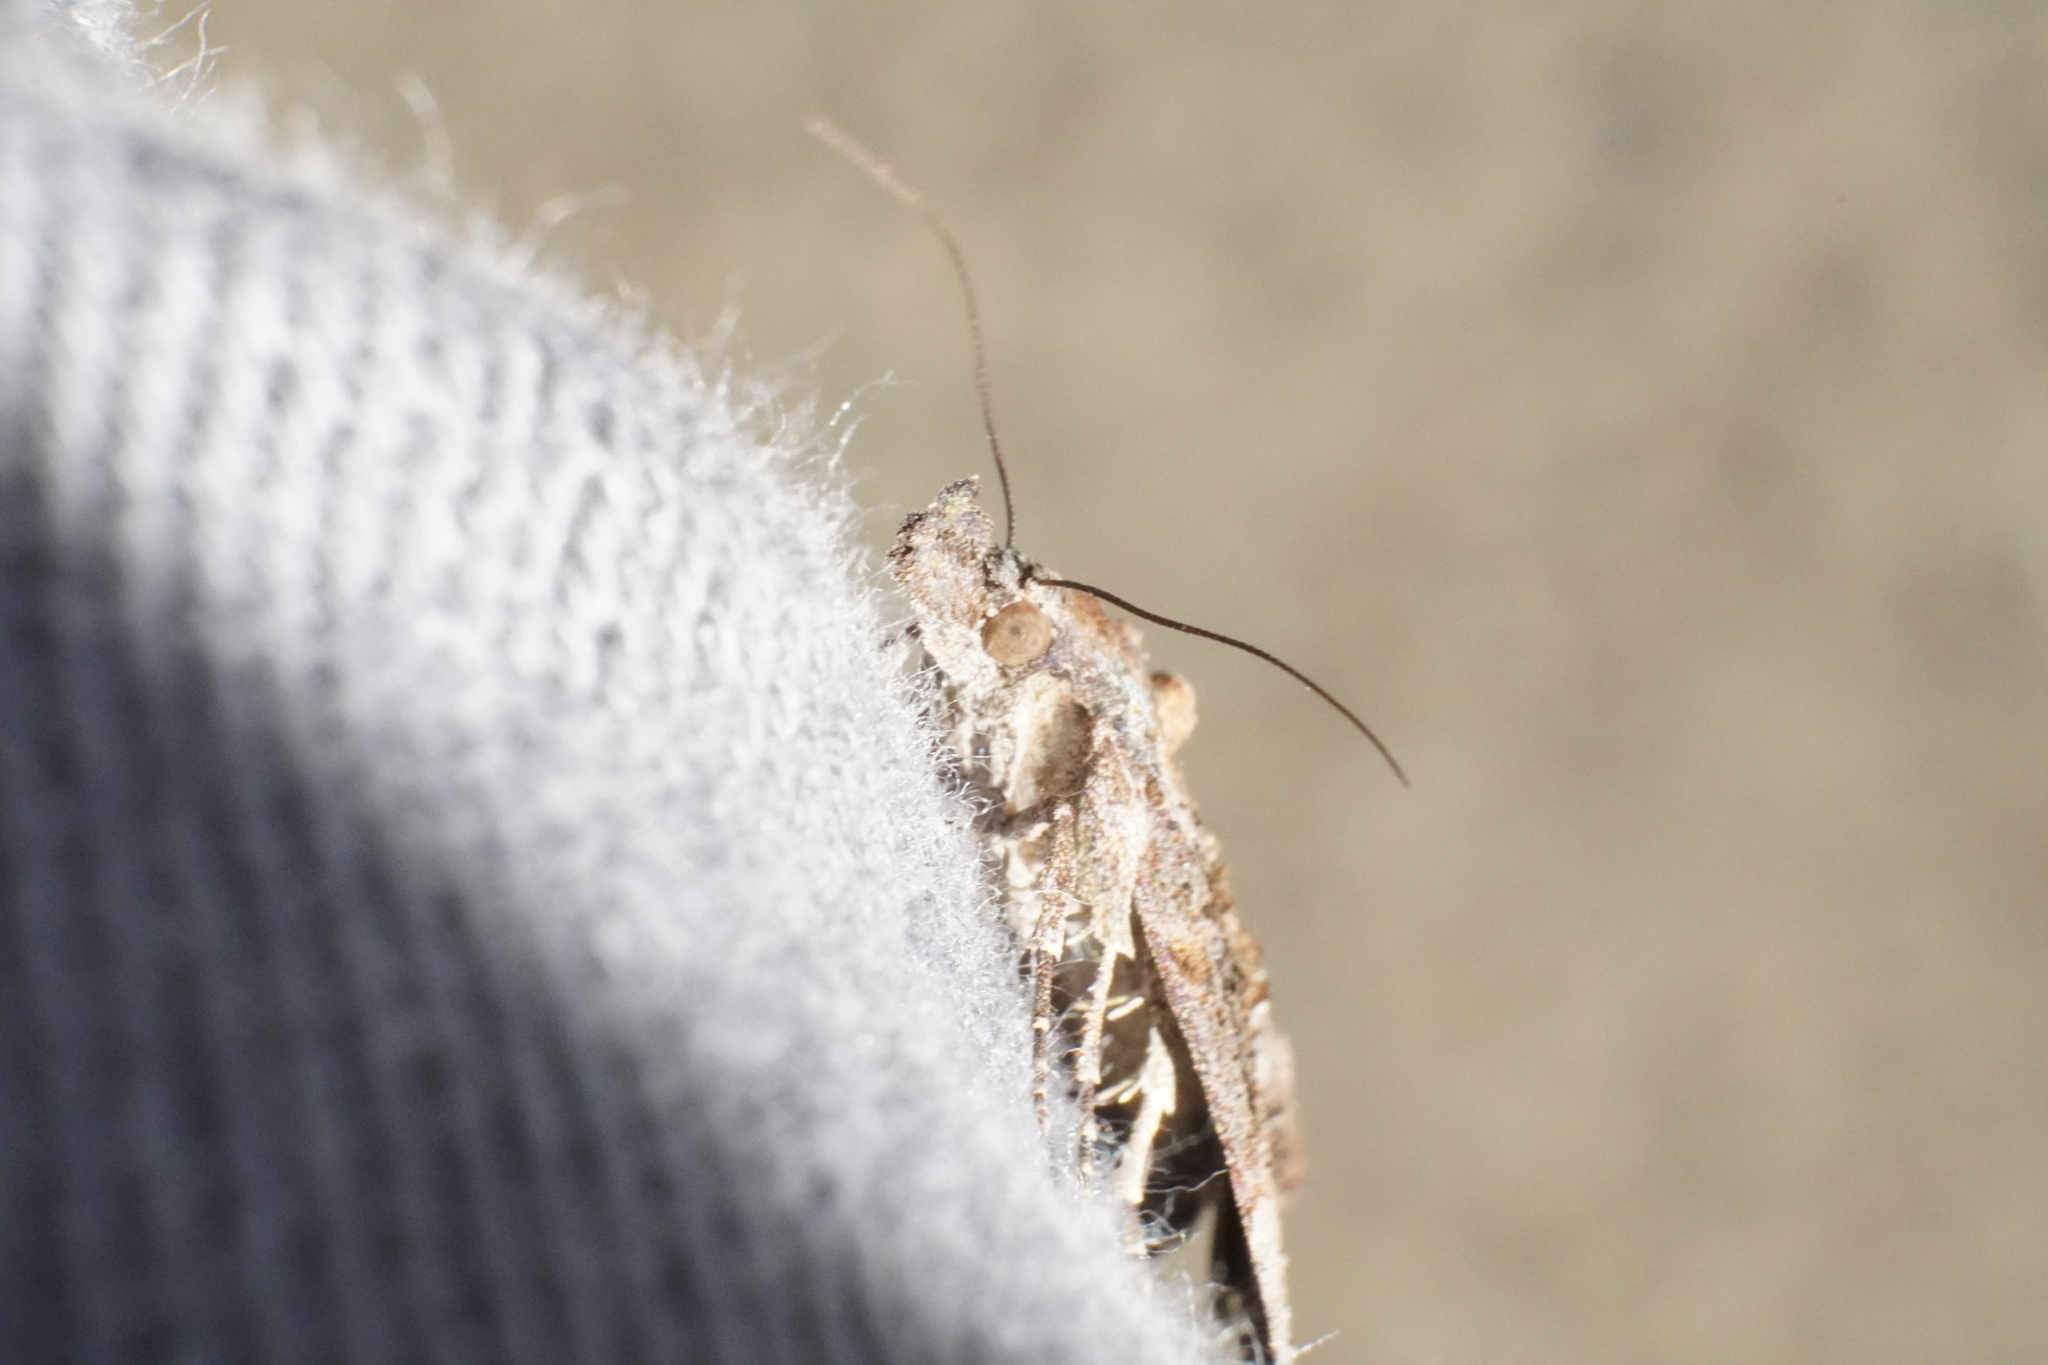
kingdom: Animalia
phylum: Arthropoda
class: Insecta
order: Lepidoptera
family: Erebidae
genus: Hypena
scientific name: Hypena scabra
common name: Green cloverworm
